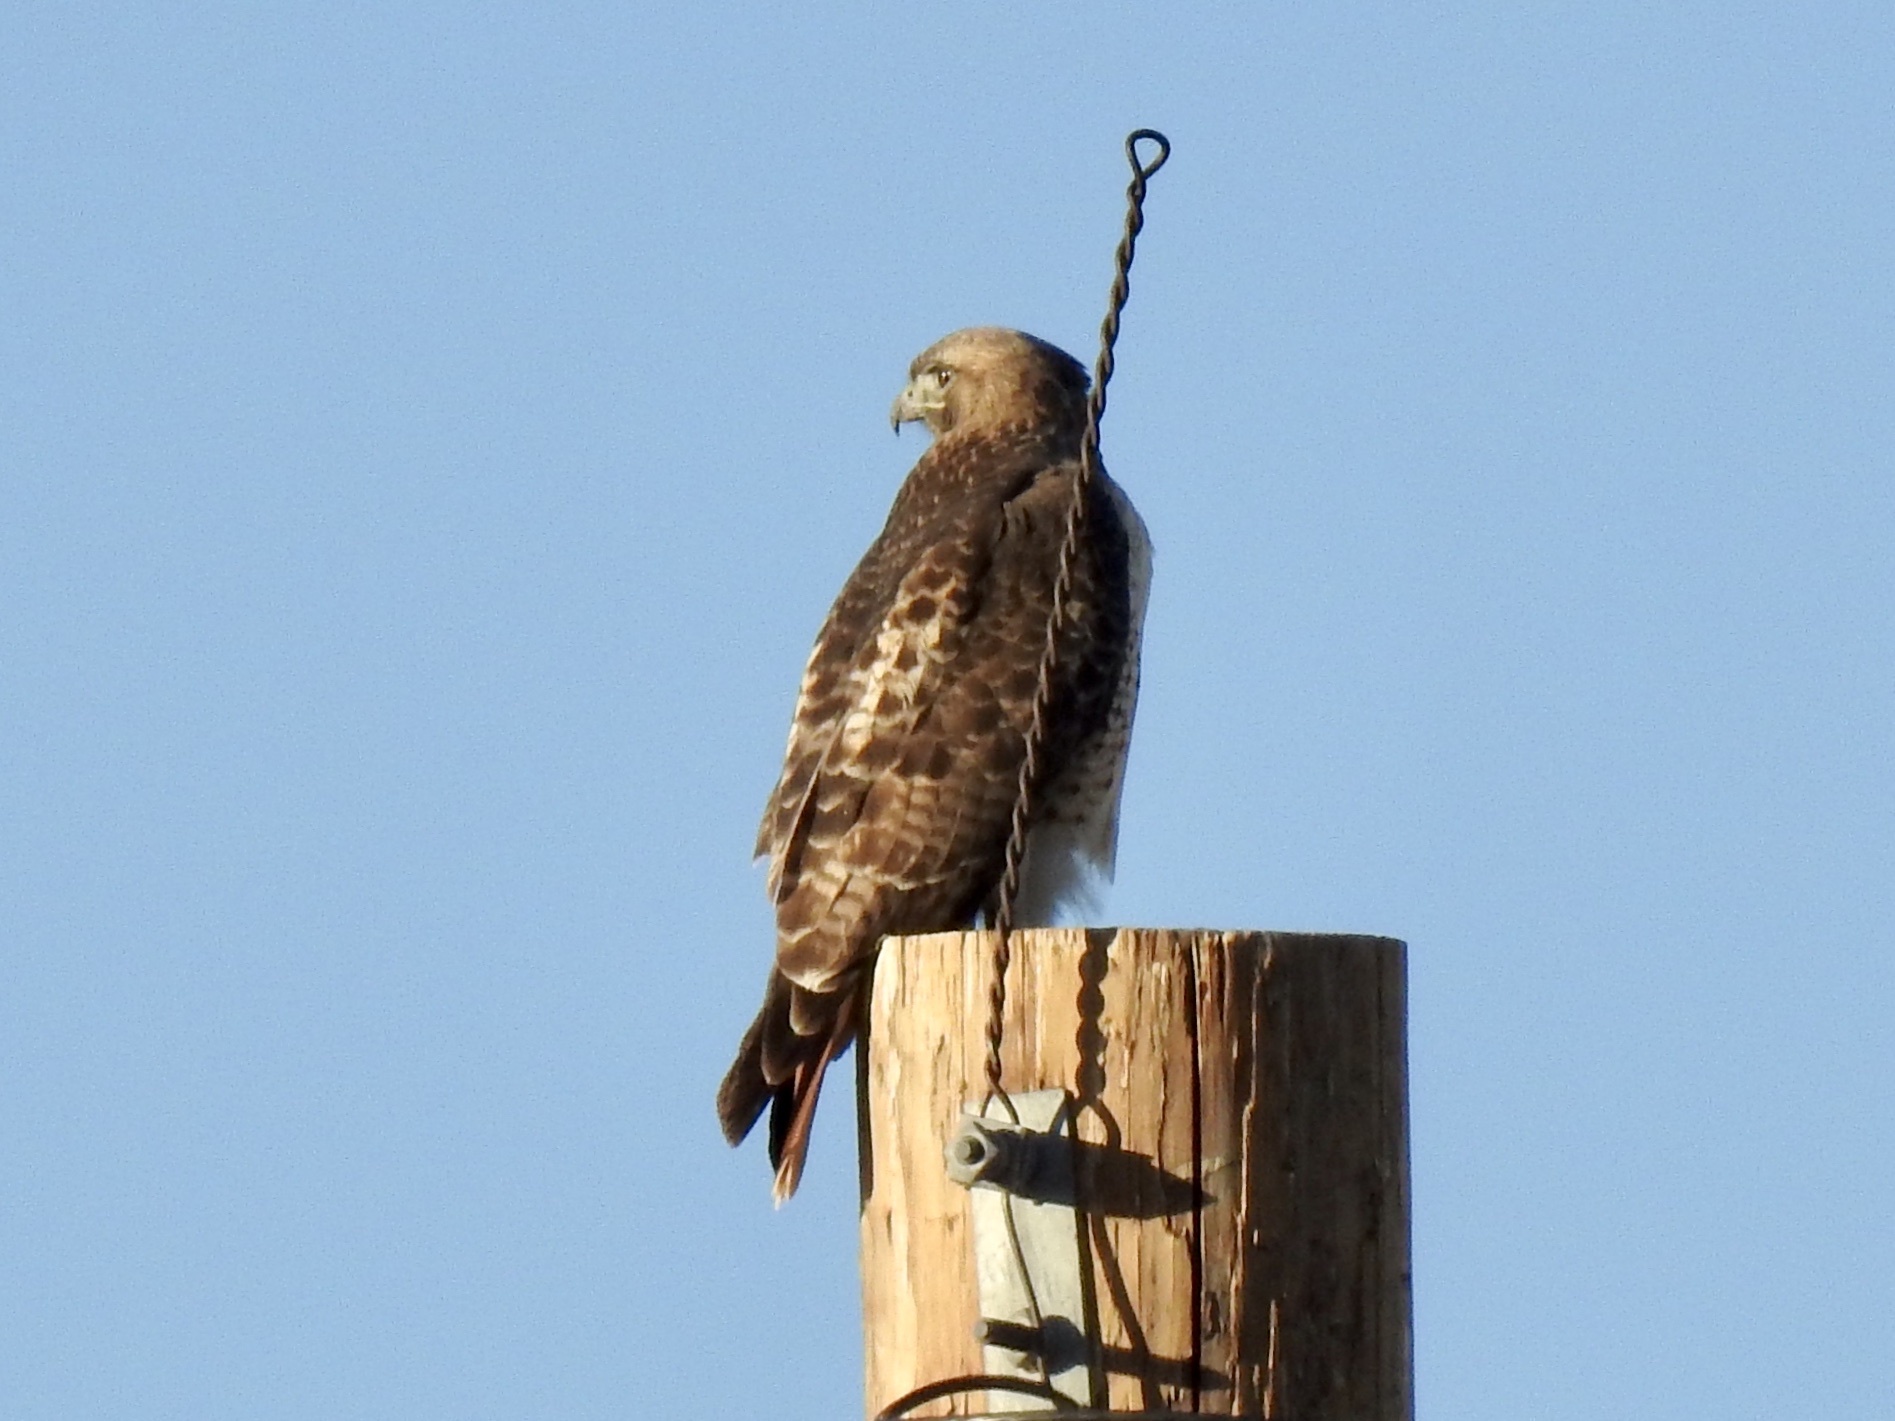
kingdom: Animalia
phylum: Chordata
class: Aves
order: Accipitriformes
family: Accipitridae
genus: Buteo
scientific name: Buteo jamaicensis
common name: Red-tailed hawk
